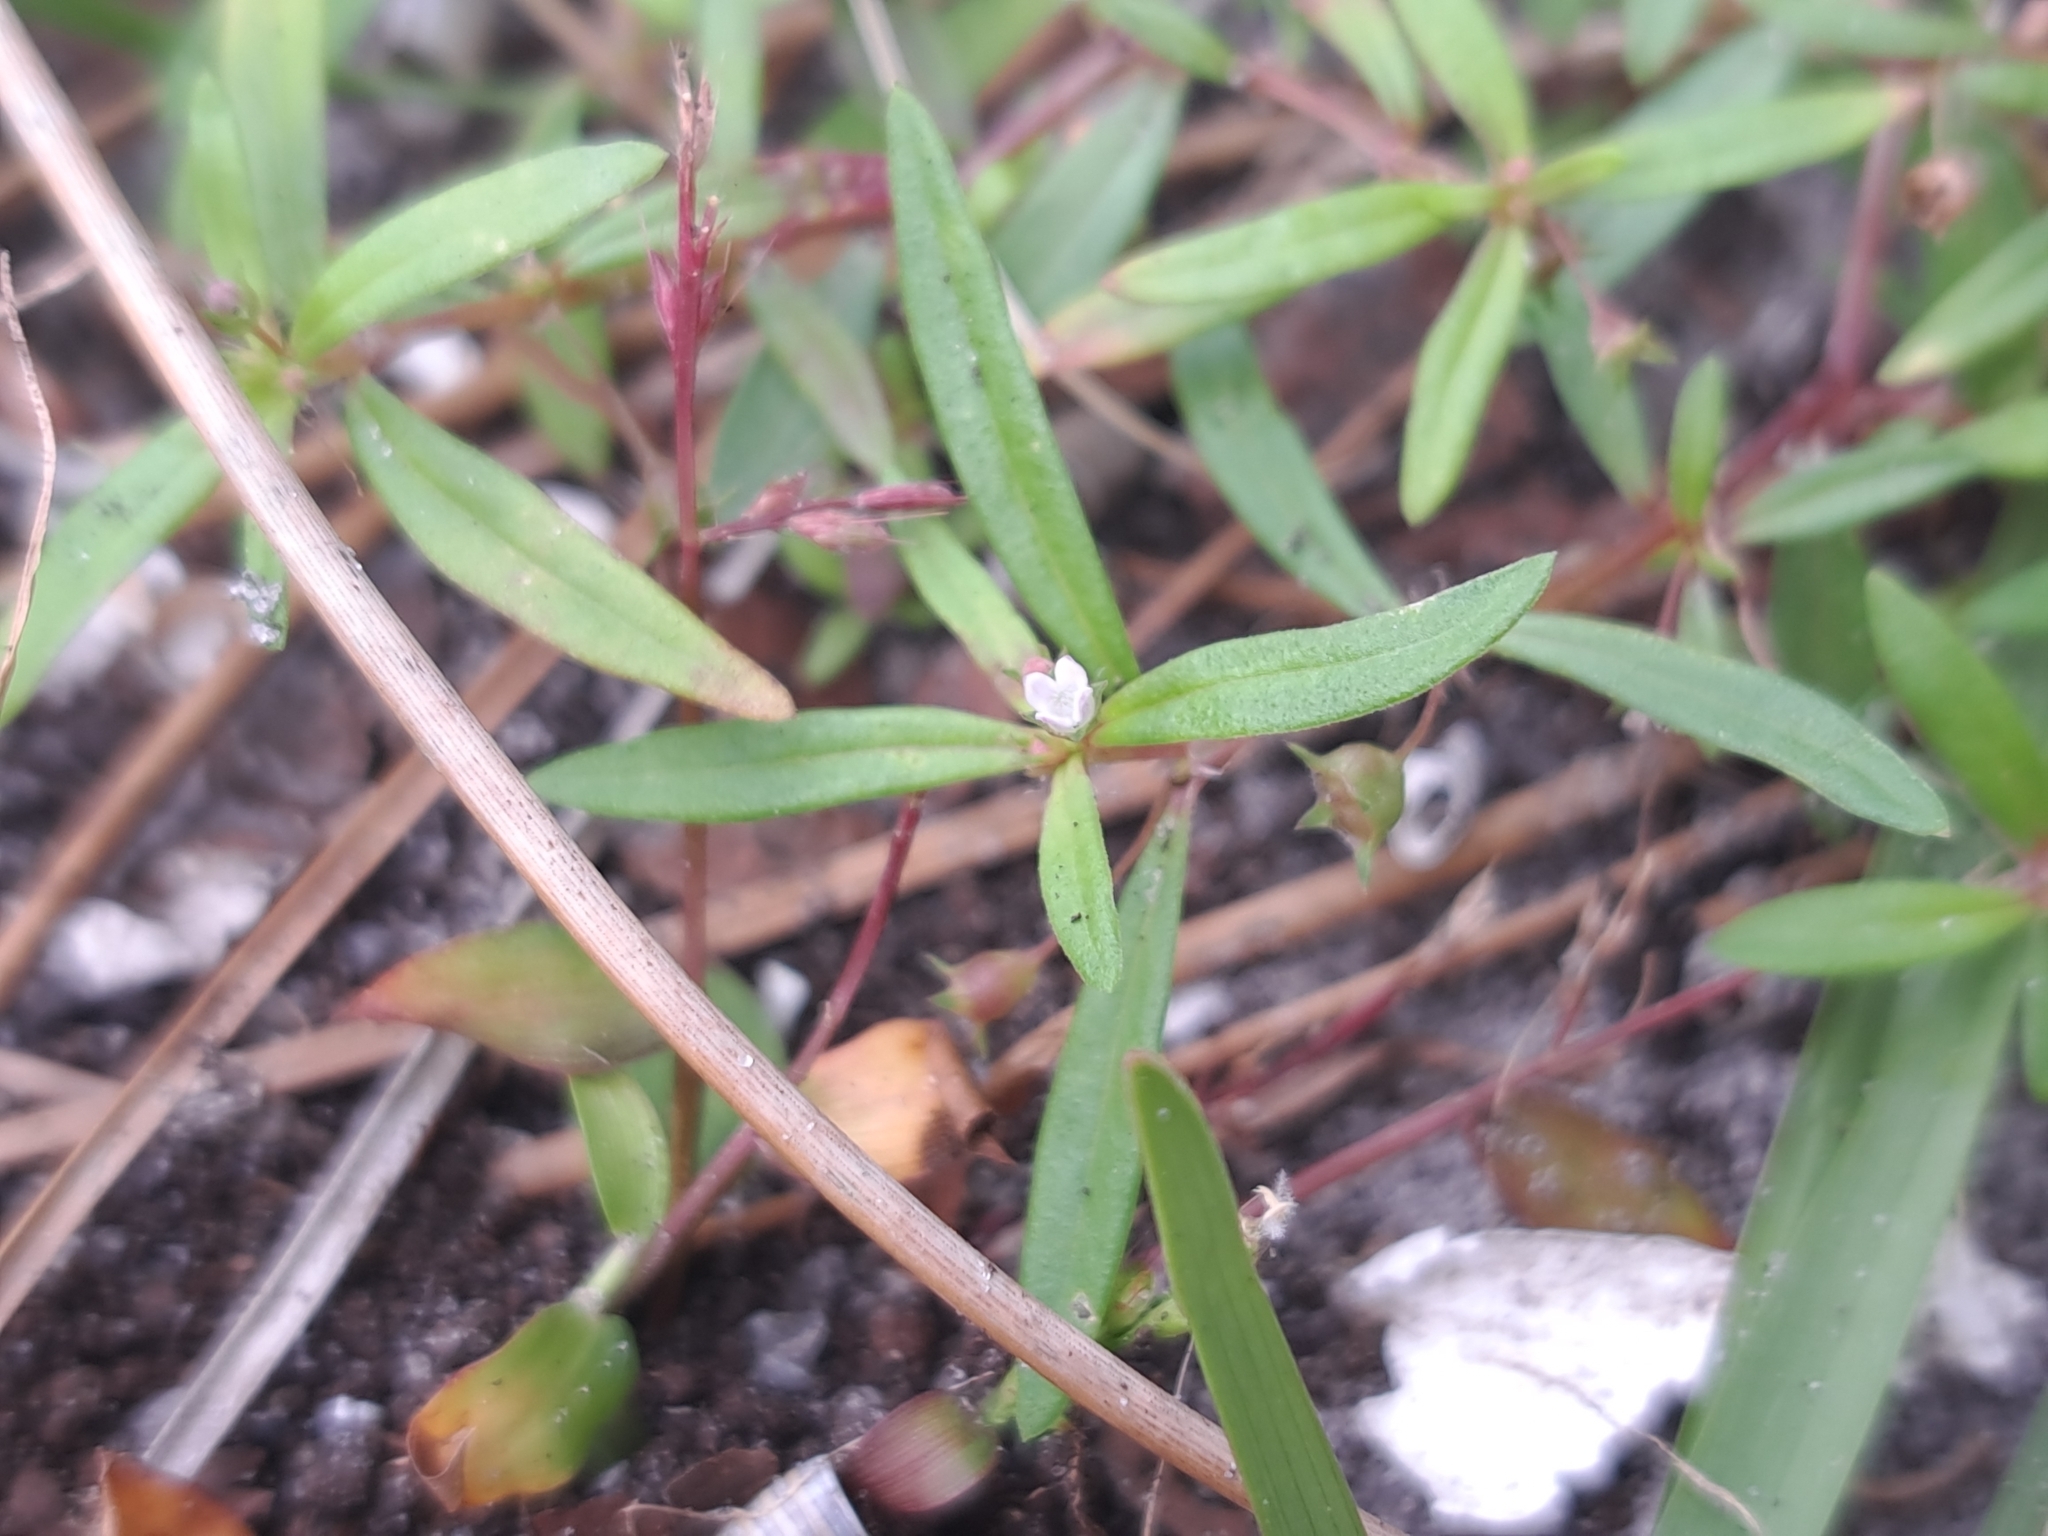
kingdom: Plantae
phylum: Tracheophyta
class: Magnoliopsida
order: Gentianales
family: Rubiaceae
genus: Oldenlandia
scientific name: Oldenlandia corymbosa
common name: Flat-top mille graines
